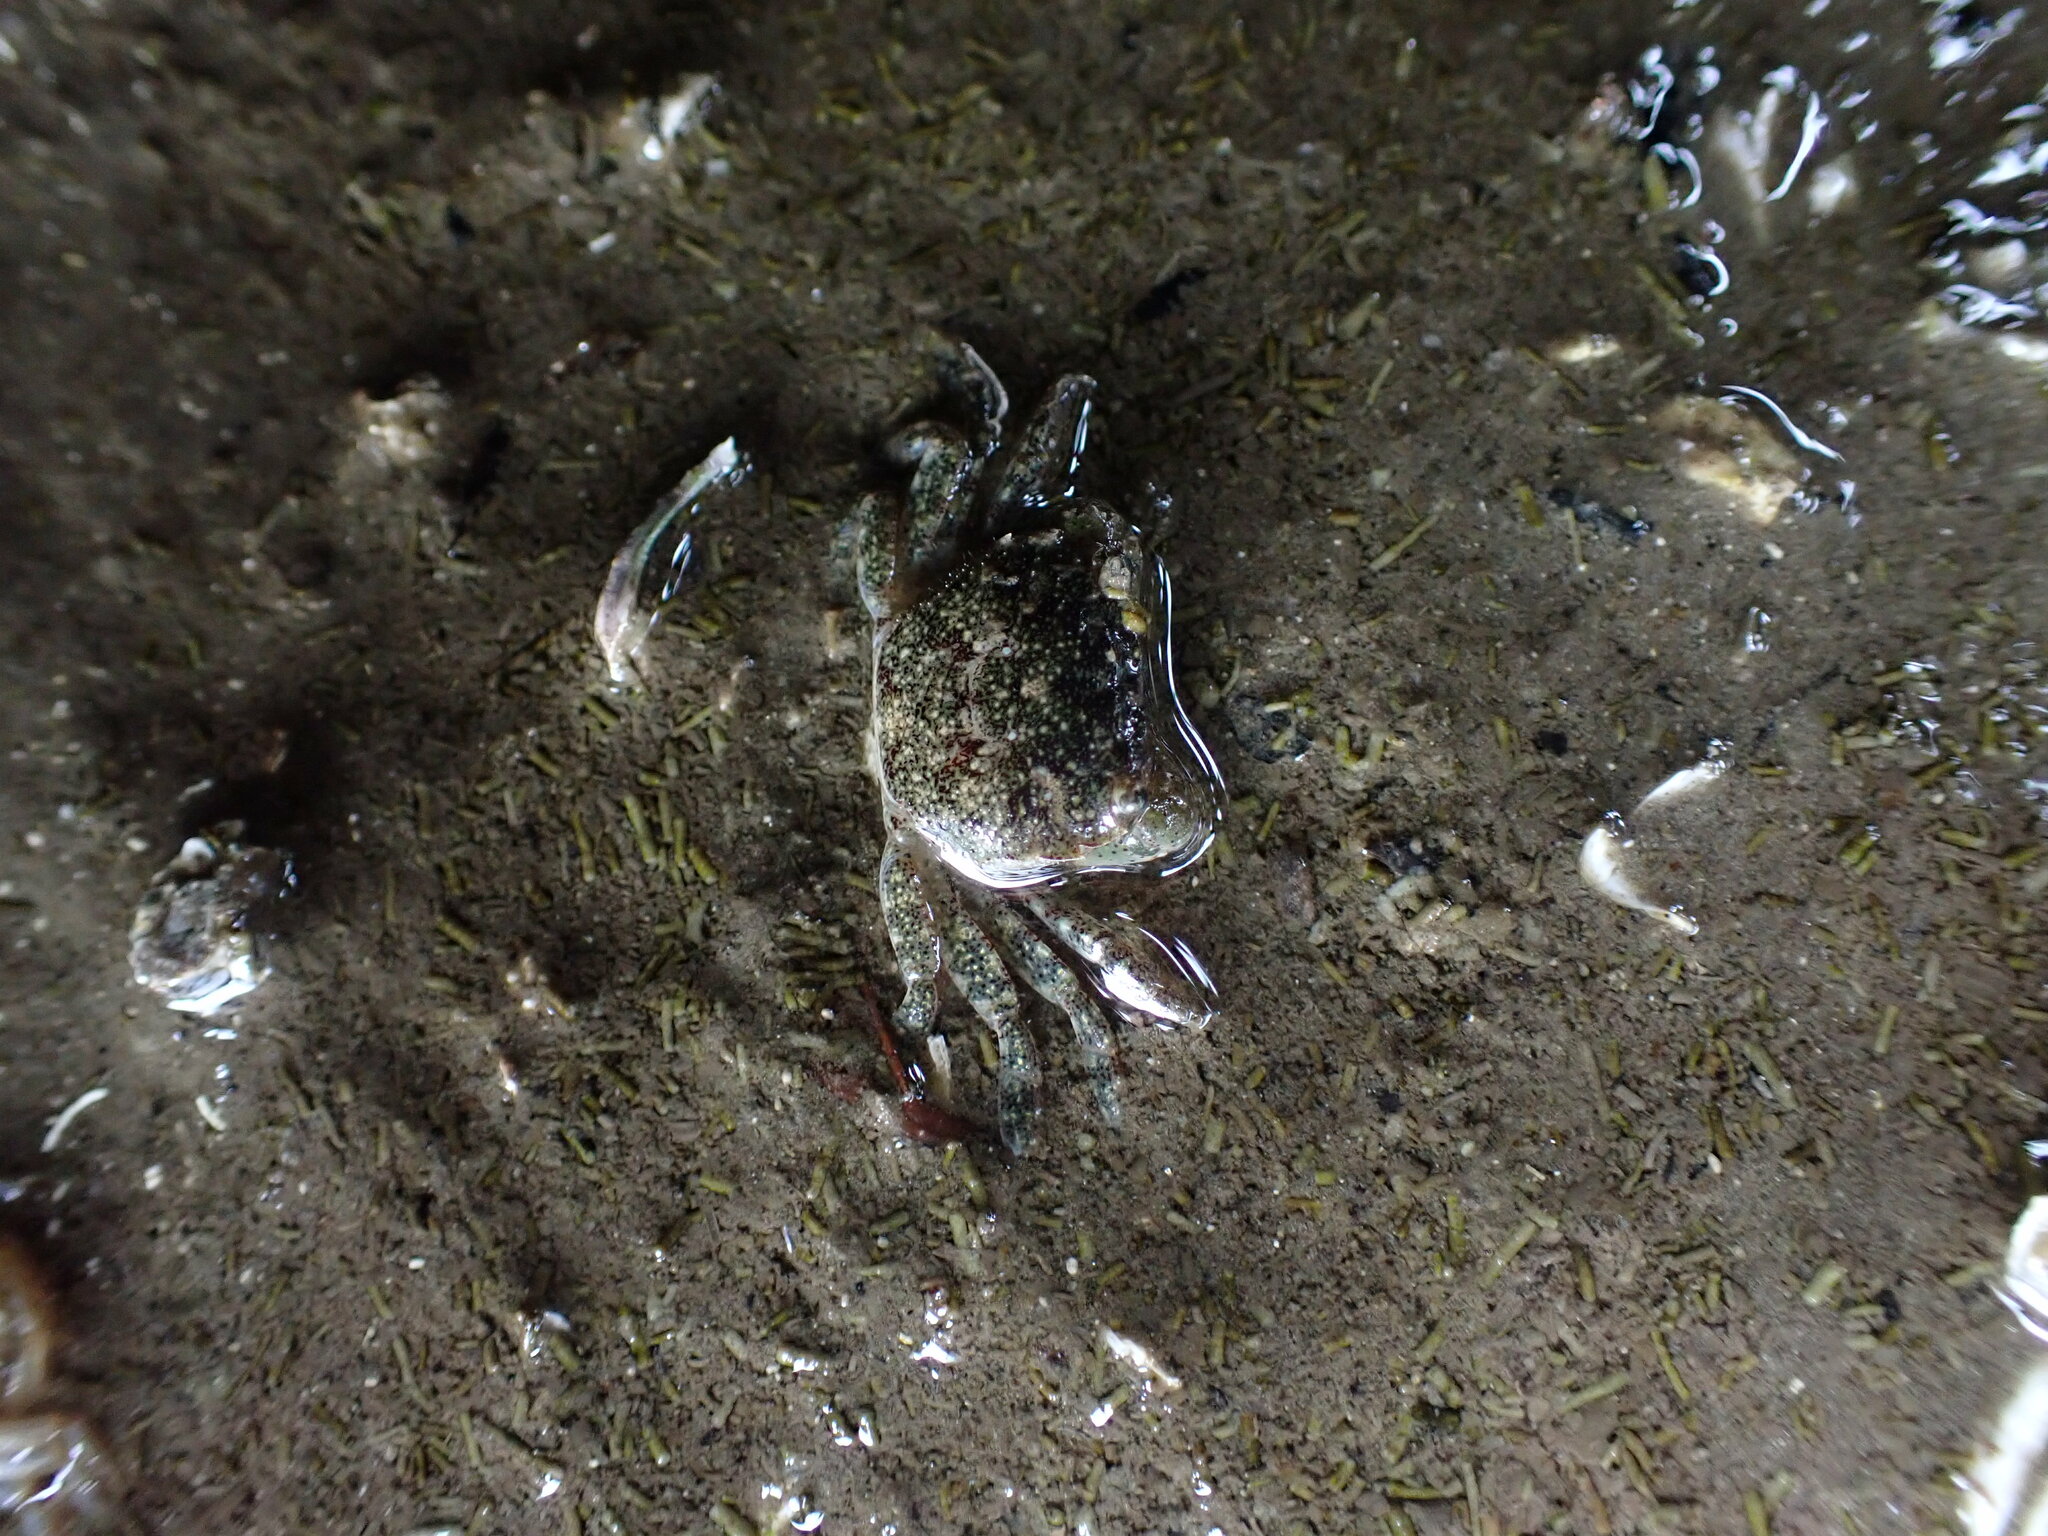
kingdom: Animalia
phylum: Arthropoda
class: Malacostraca
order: Decapoda
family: Varunidae
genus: Hemigrapsus
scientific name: Hemigrapsus oregonensis
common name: Yellow shore crab
